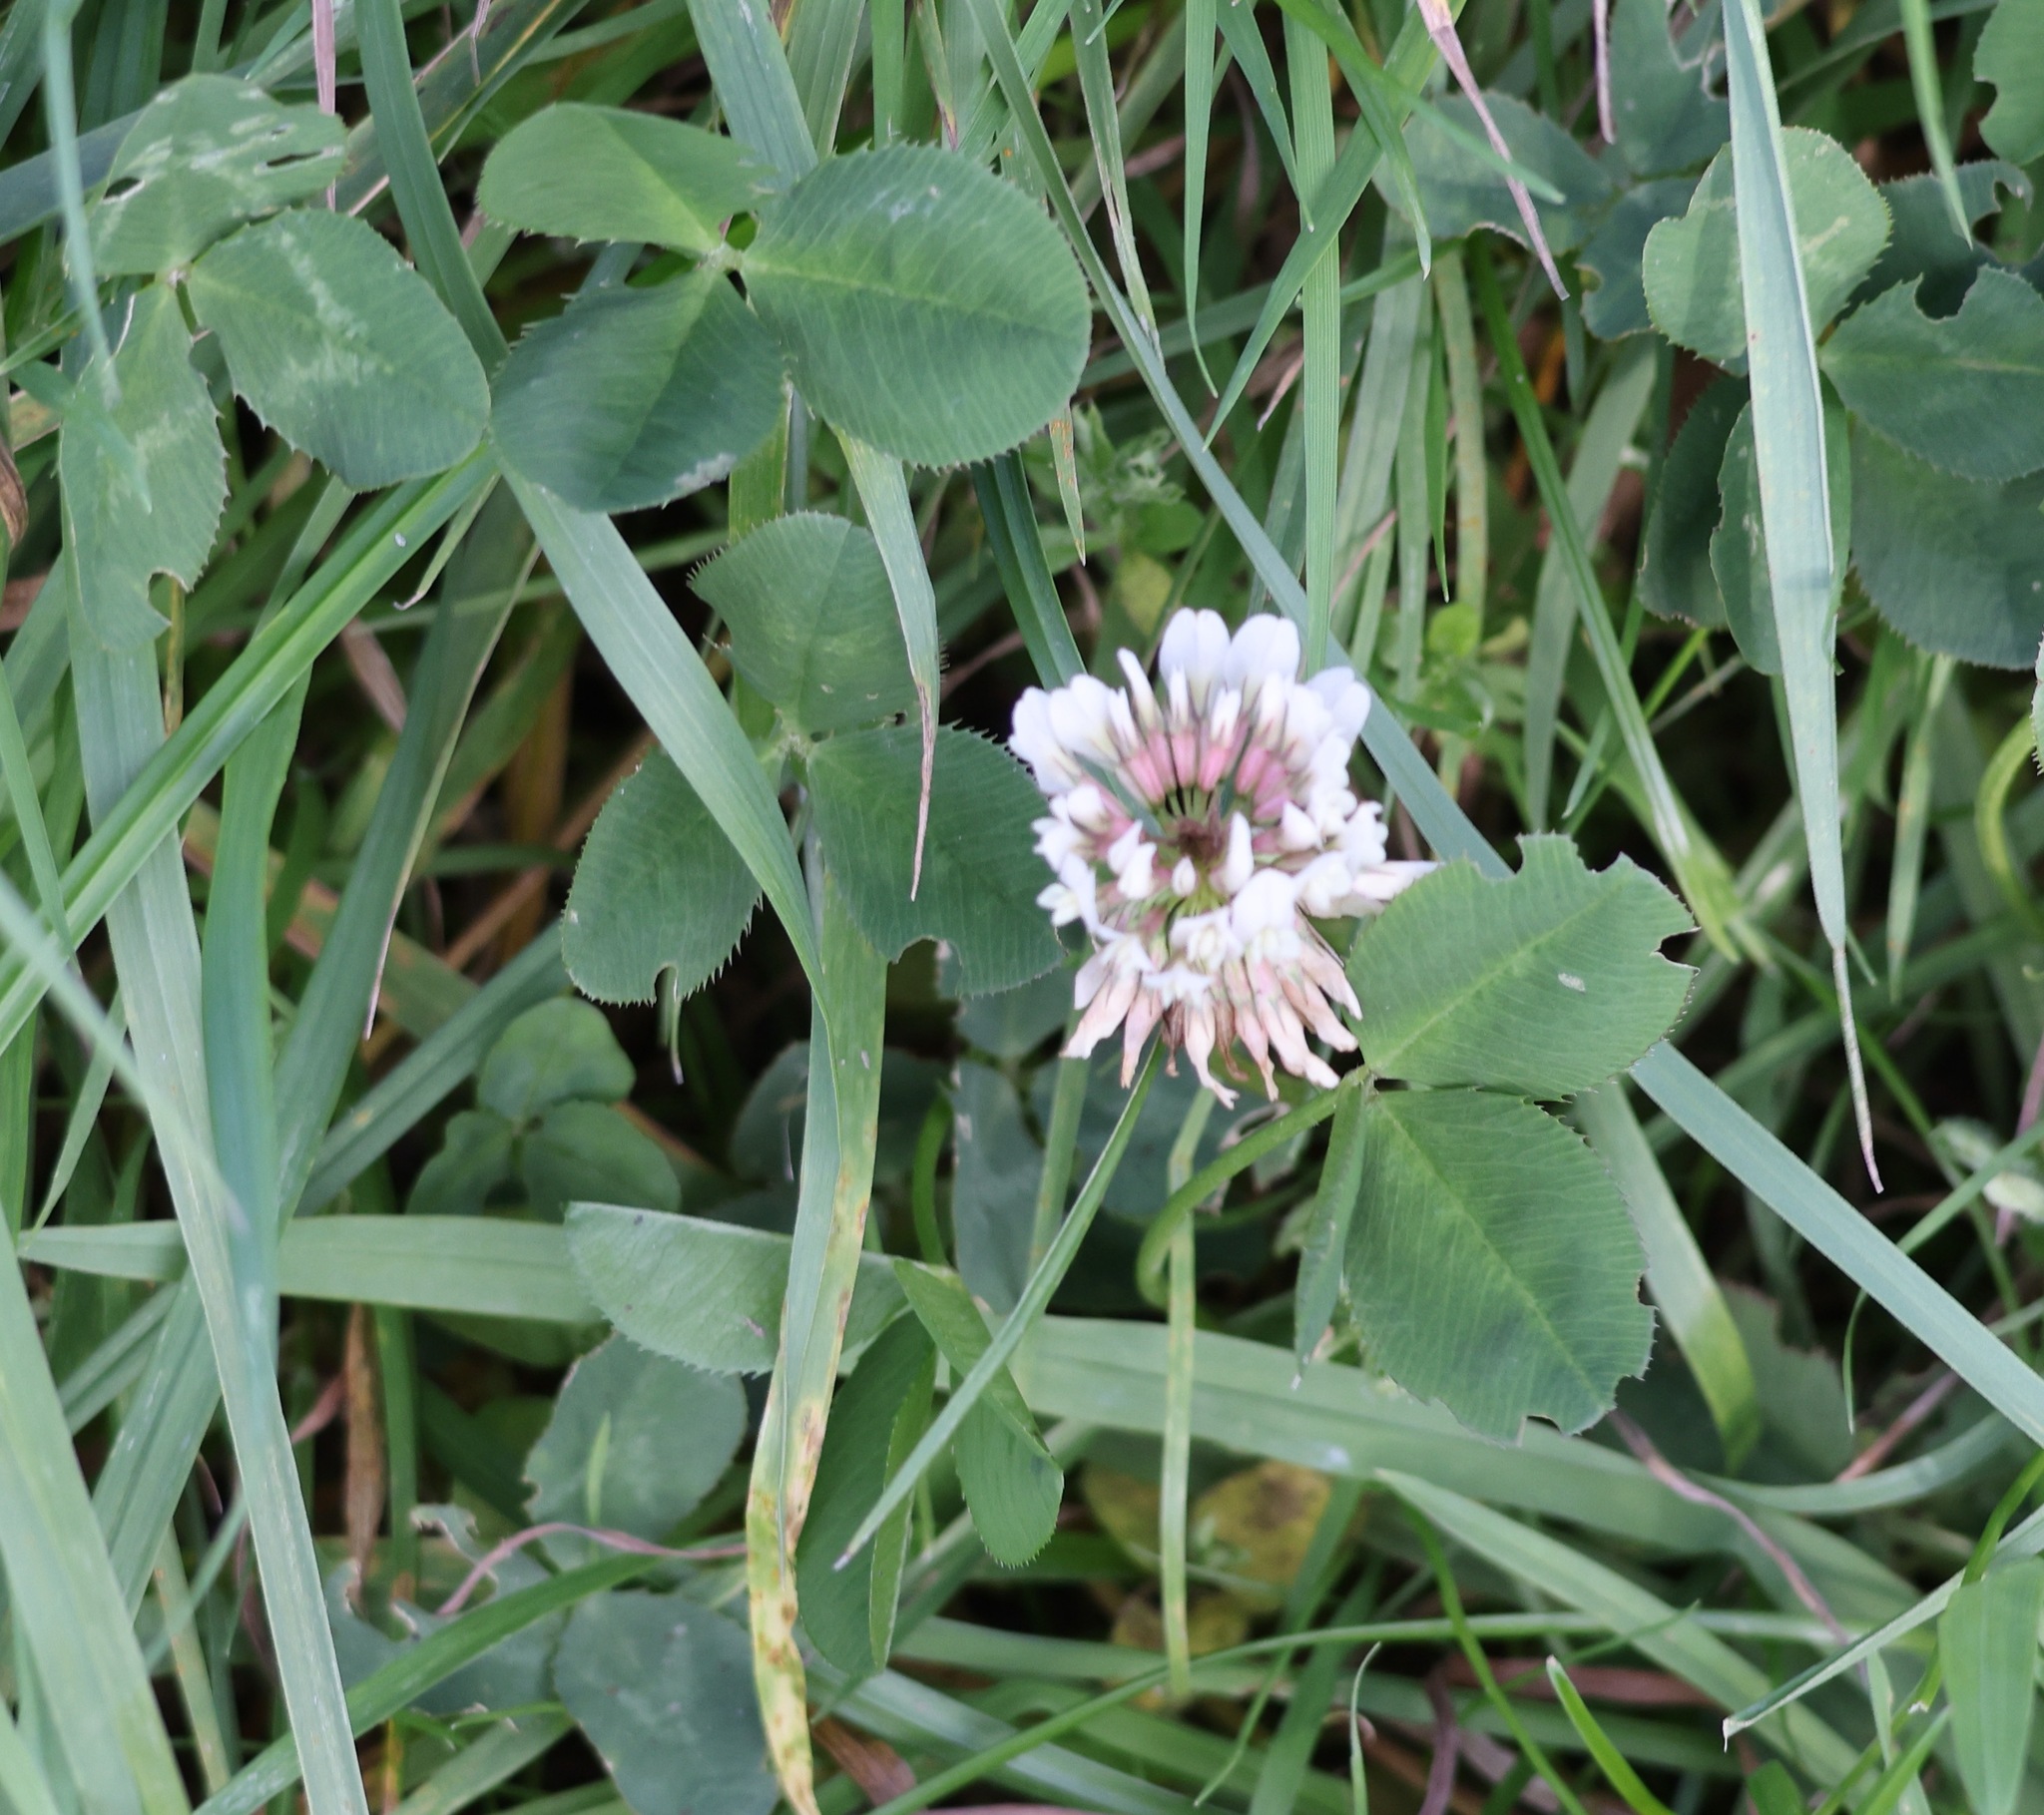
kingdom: Plantae
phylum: Tracheophyta
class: Magnoliopsida
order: Fabales
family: Fabaceae
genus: Trifolium
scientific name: Trifolium repens
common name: White clover
